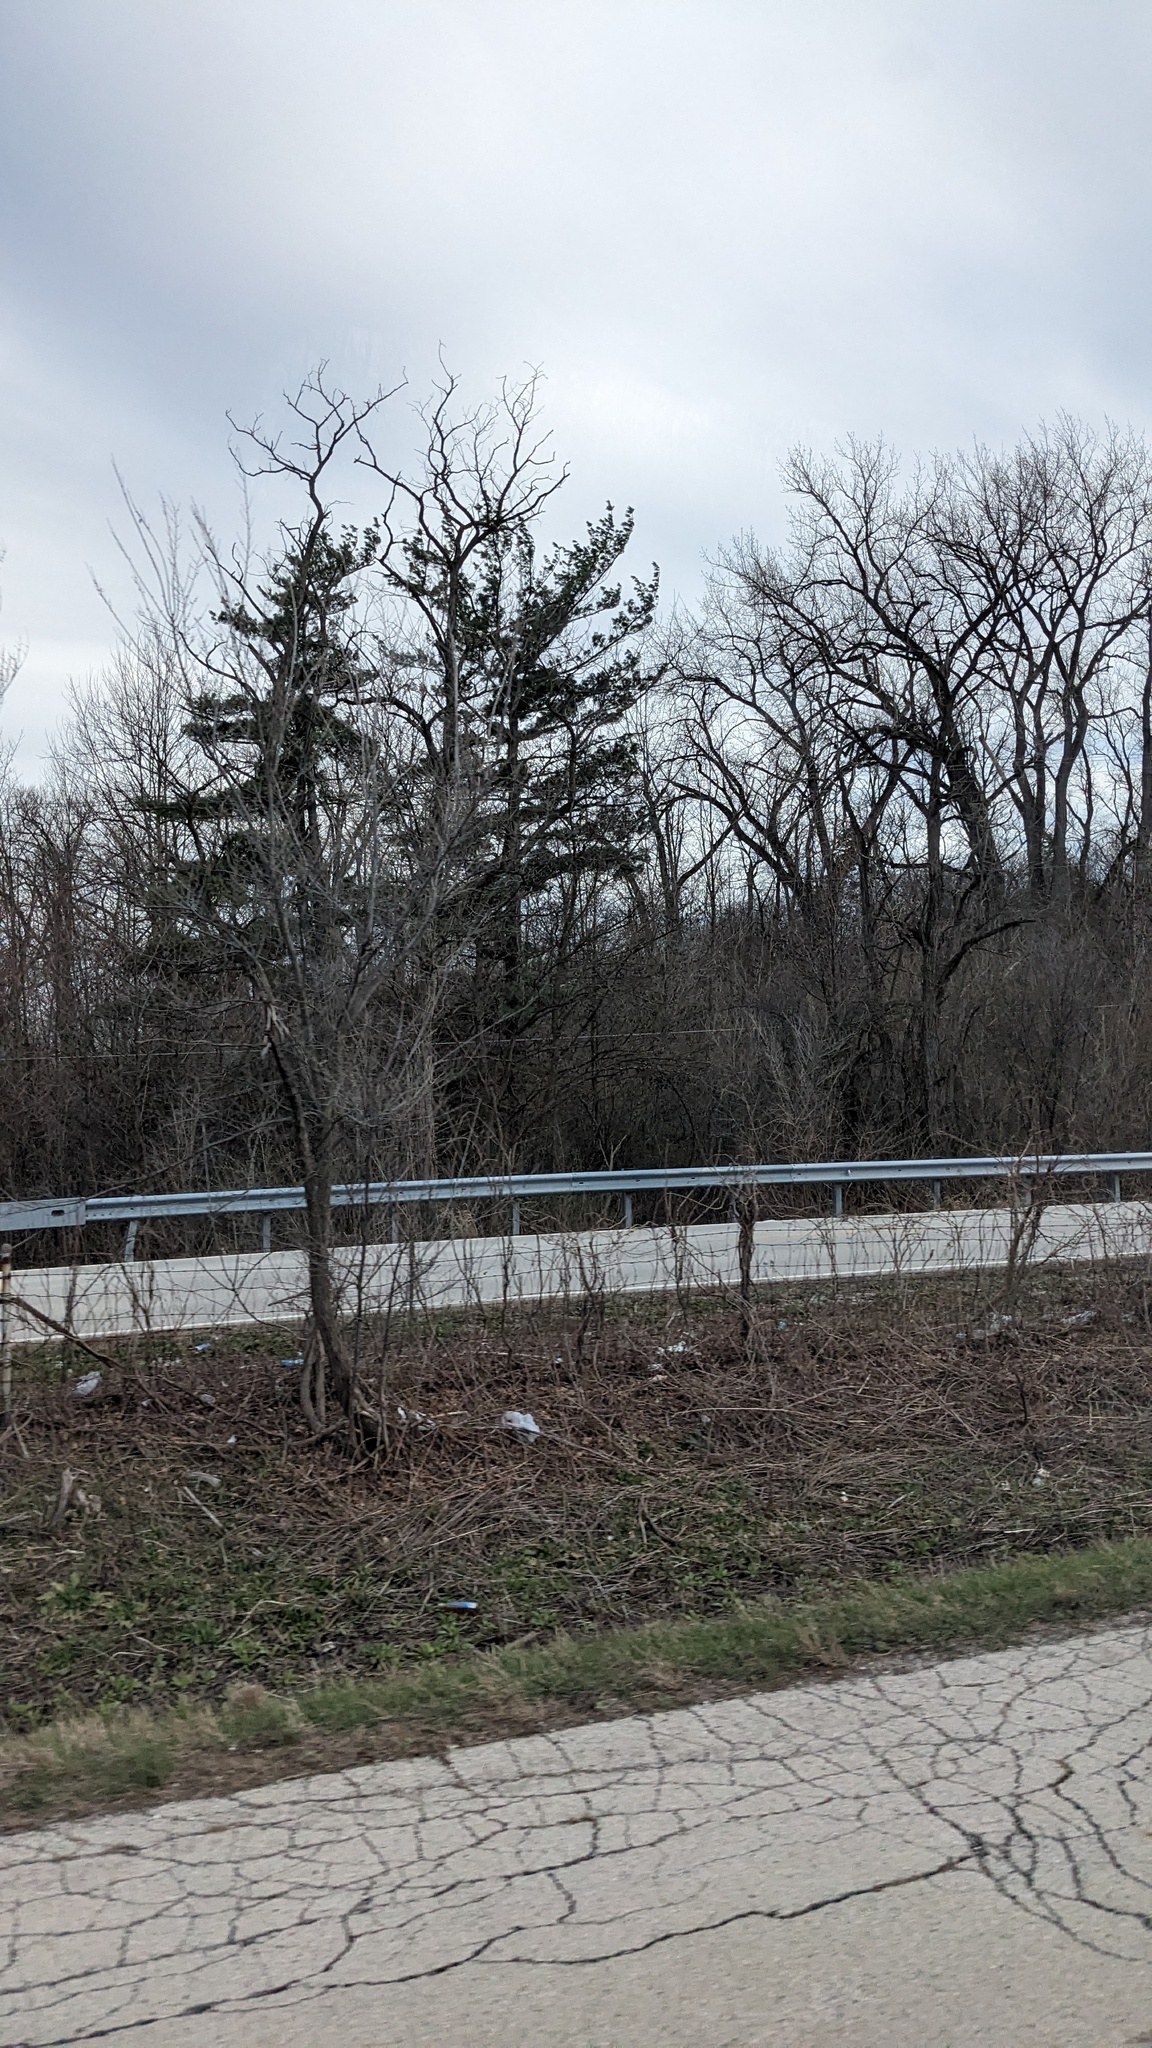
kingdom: Plantae
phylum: Tracheophyta
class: Pinopsida
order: Pinales
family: Pinaceae
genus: Pinus
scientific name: Pinus strobus
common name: Weymouth pine
